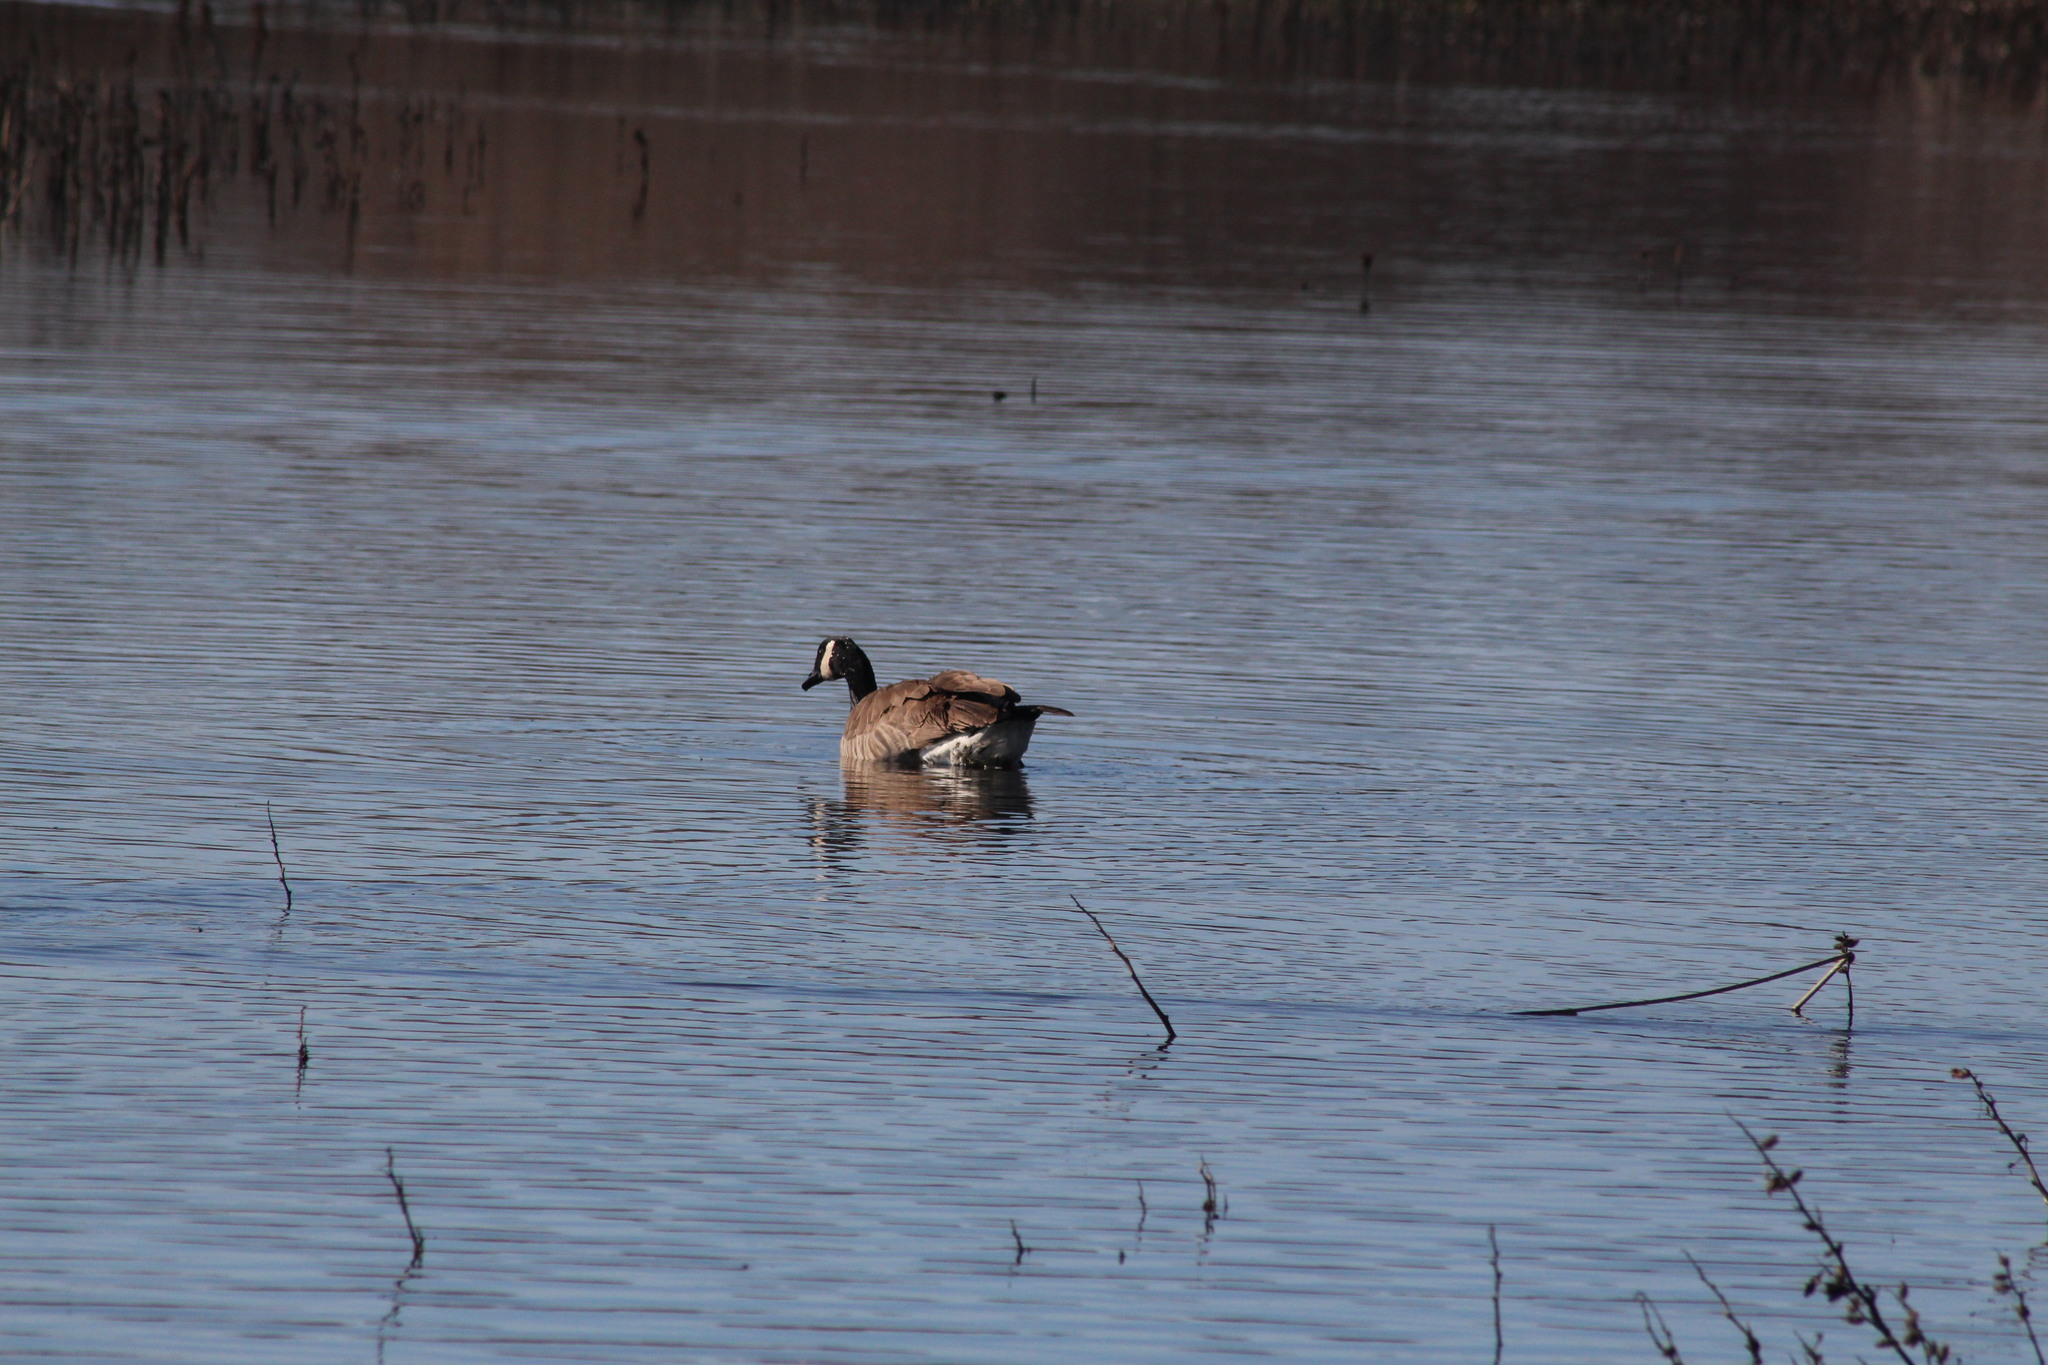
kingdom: Animalia
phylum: Chordata
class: Aves
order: Anseriformes
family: Anatidae
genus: Branta
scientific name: Branta canadensis
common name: Canada goose
